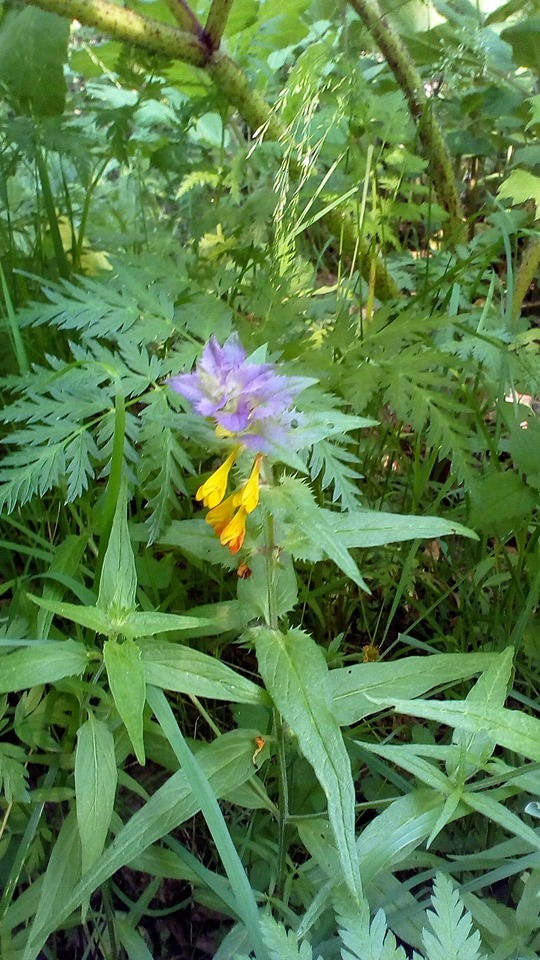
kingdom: Plantae
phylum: Tracheophyta
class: Magnoliopsida
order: Lamiales
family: Orobanchaceae
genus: Melampyrum
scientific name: Melampyrum nemorosum
